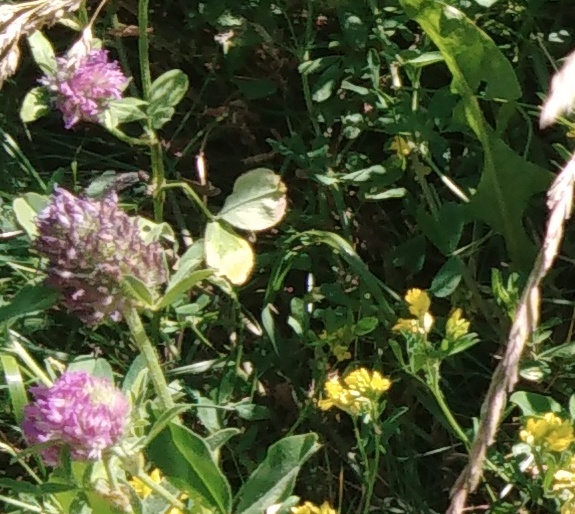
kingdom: Plantae
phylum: Tracheophyta
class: Magnoliopsida
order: Fabales
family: Fabaceae
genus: Trifolium
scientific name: Trifolium pratense
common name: Red clover
